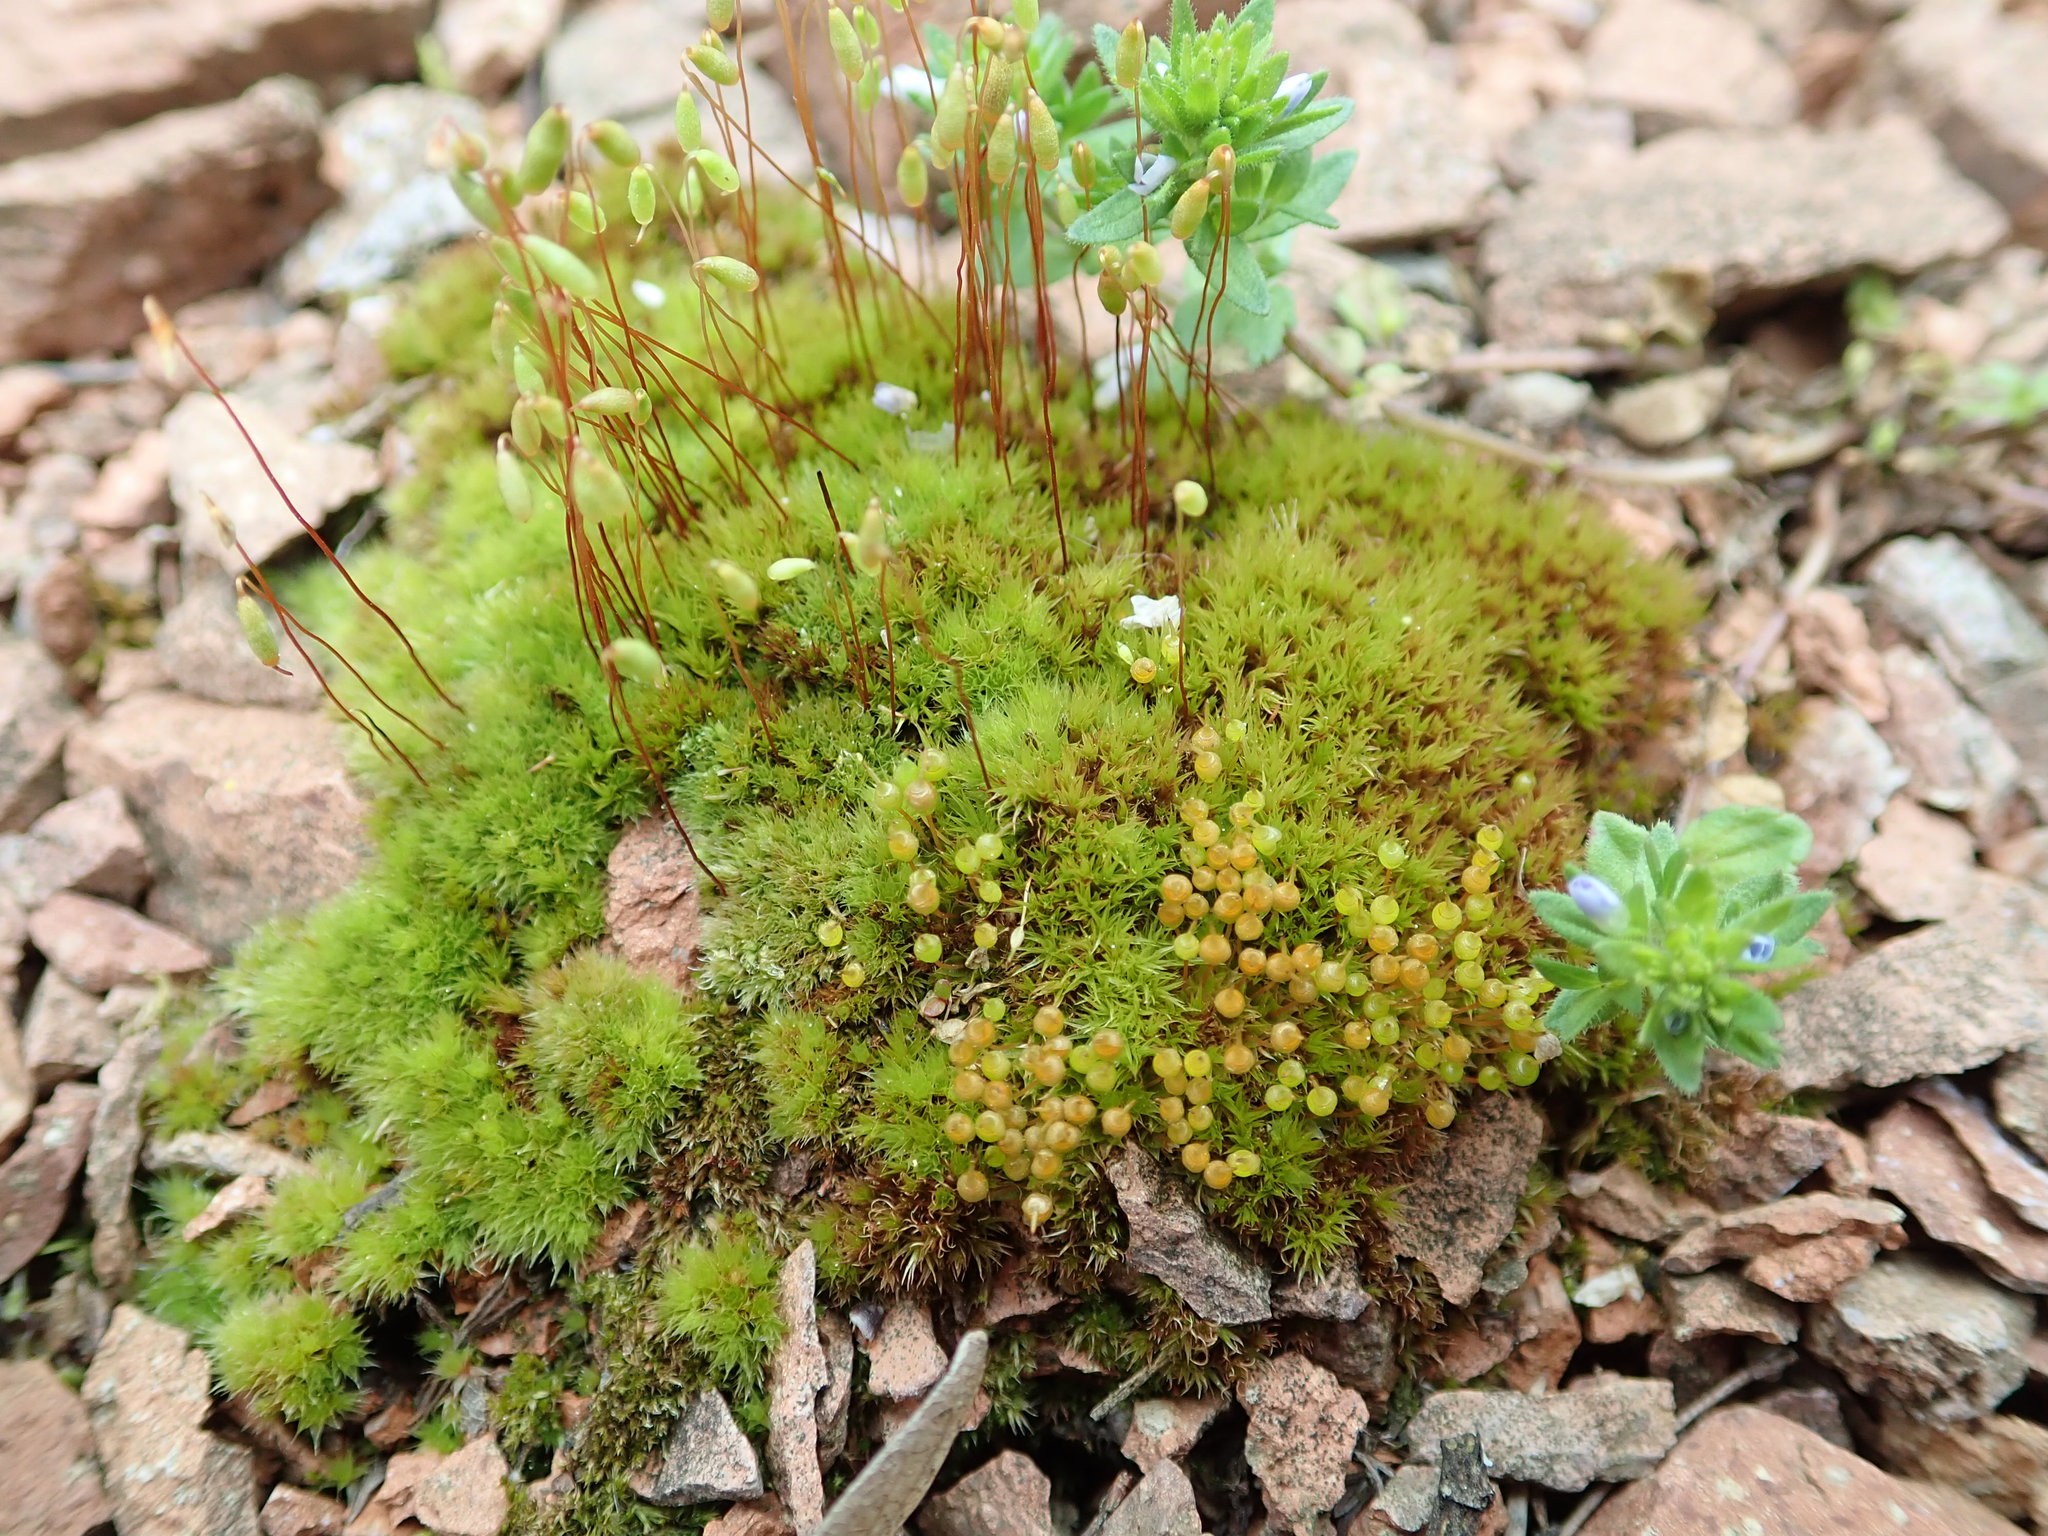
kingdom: Plantae
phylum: Bryophyta
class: Bryopsida
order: Bryales
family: Bryaceae
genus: Gemmabryum
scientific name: Gemmabryum caespiticium
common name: Handbell moss
